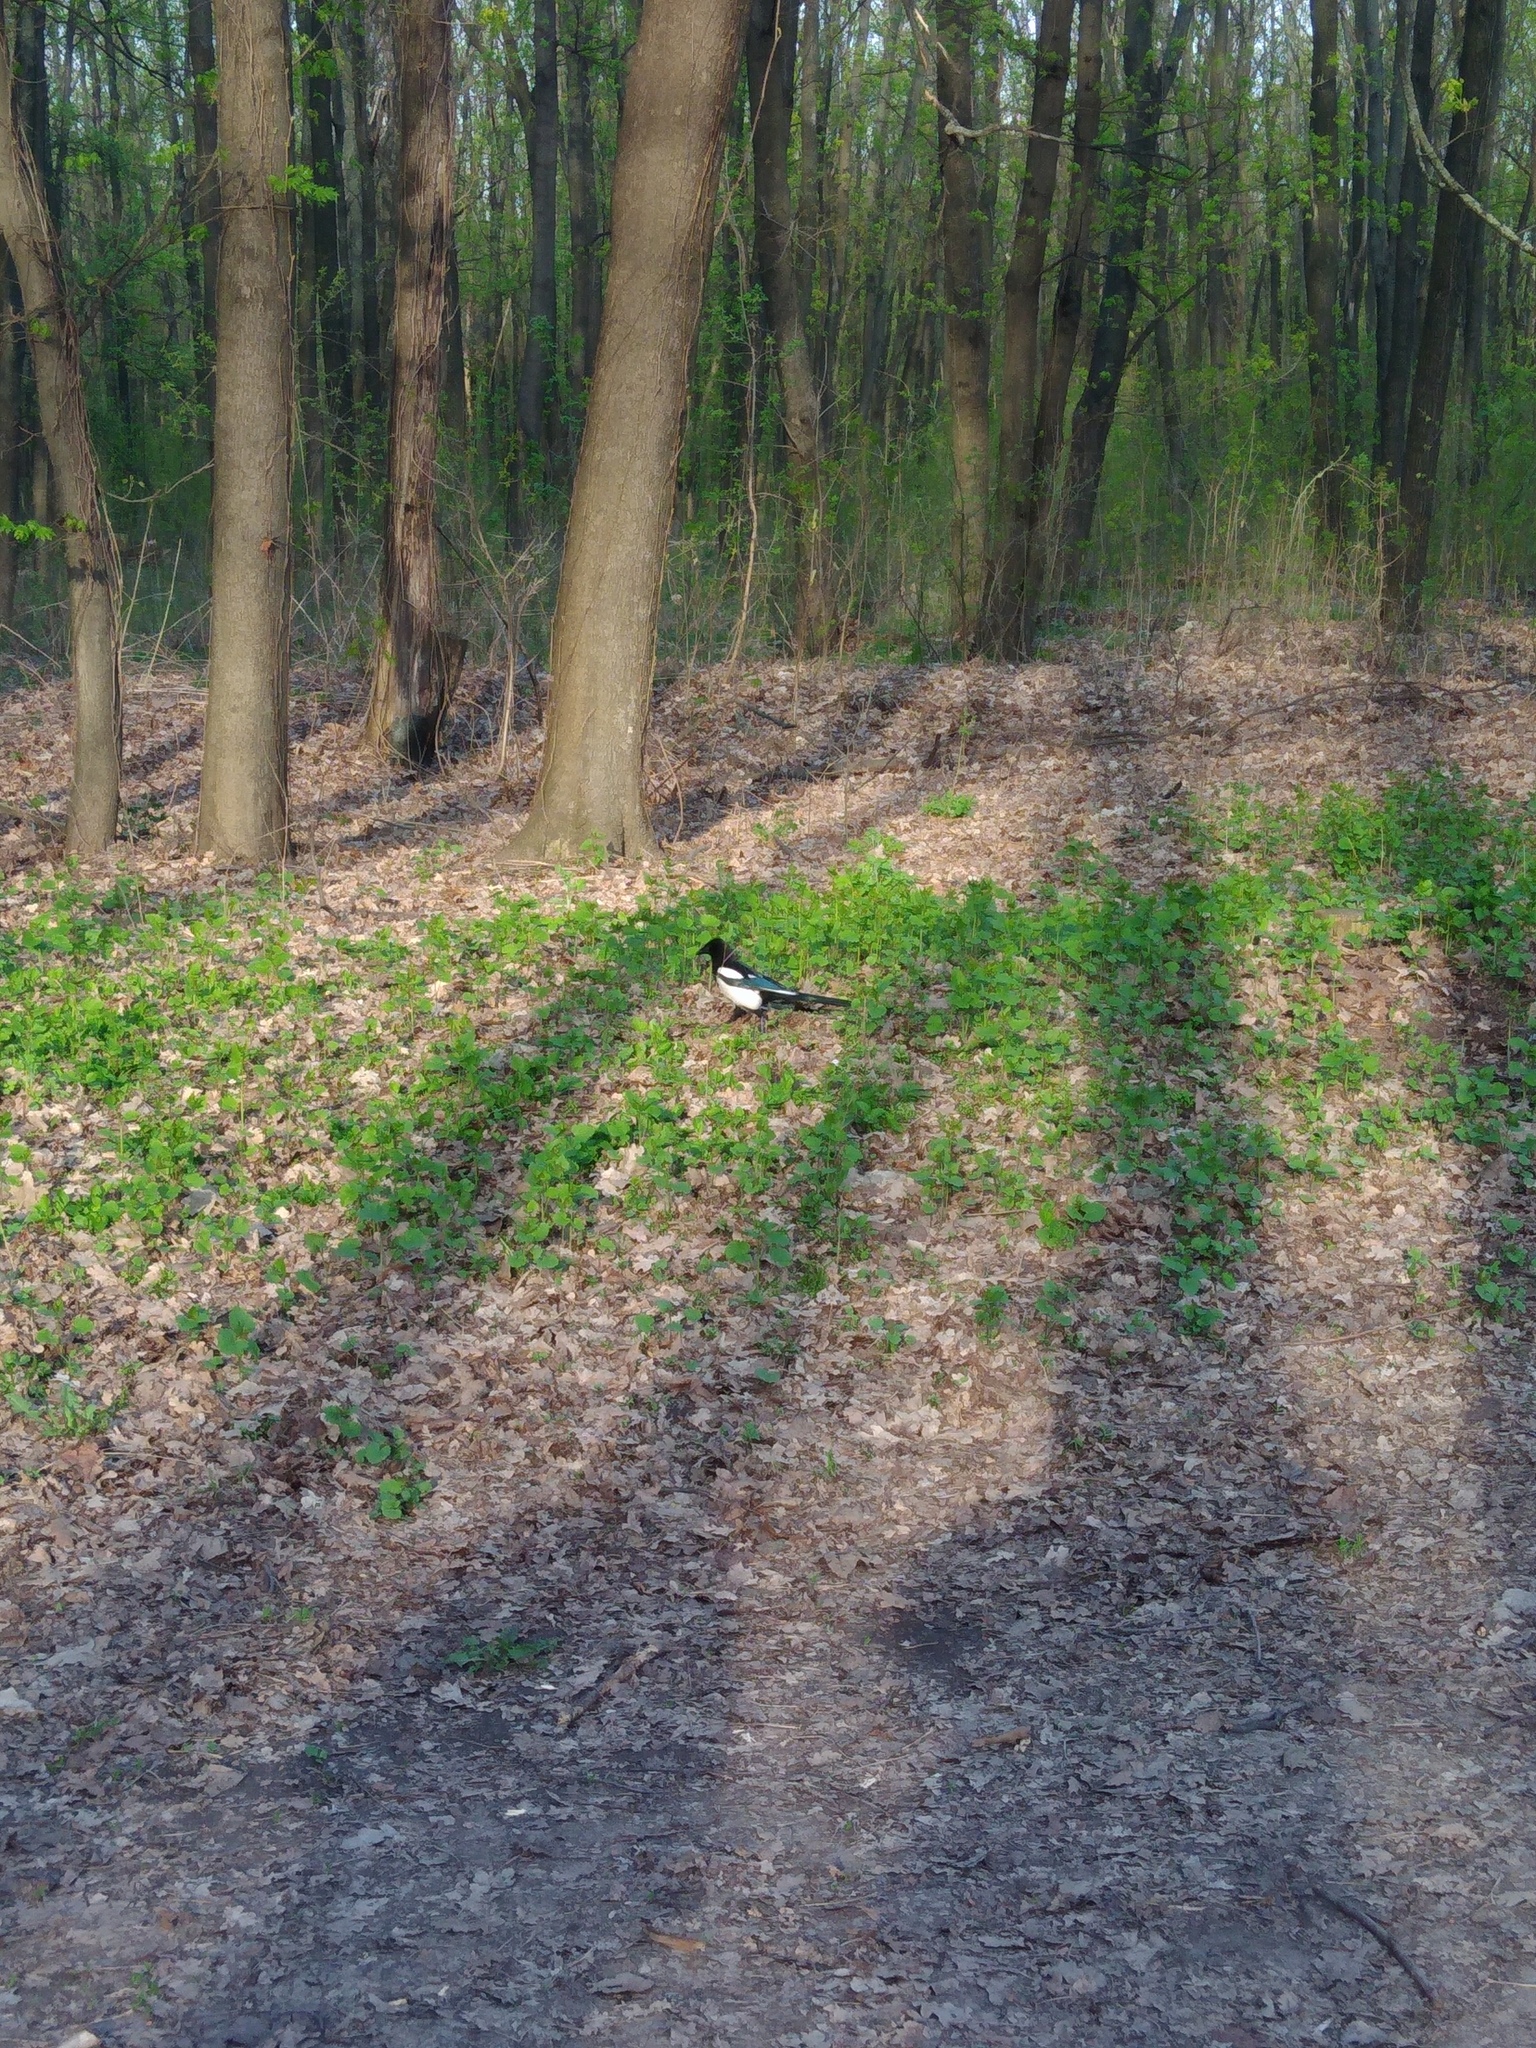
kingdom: Animalia
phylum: Chordata
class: Aves
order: Passeriformes
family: Corvidae
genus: Pica
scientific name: Pica pica
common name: Eurasian magpie
